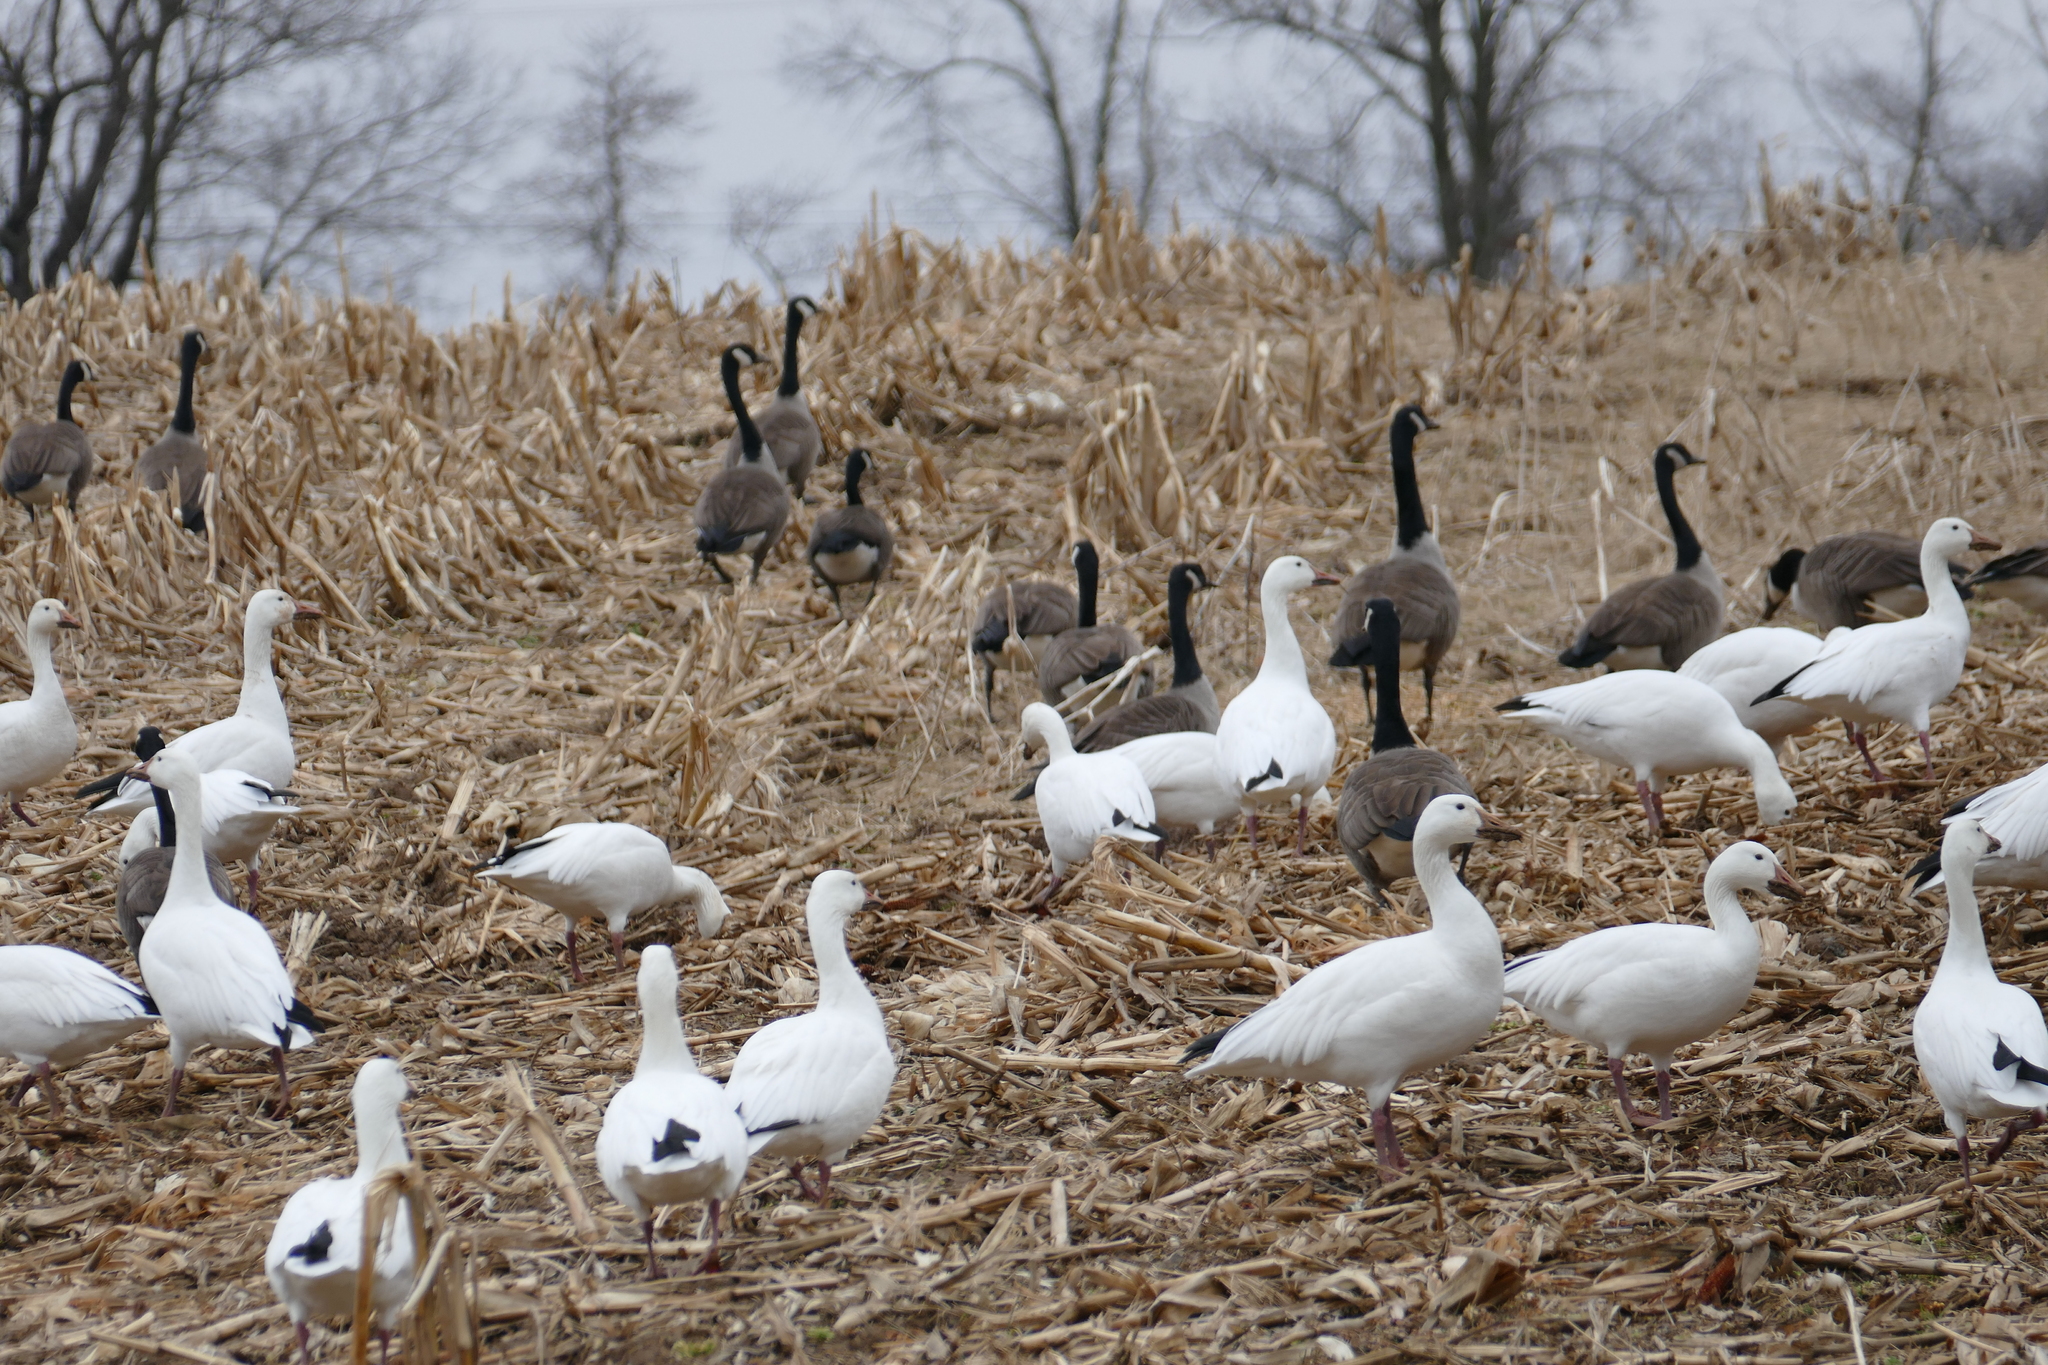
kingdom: Animalia
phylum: Chordata
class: Aves
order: Anseriformes
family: Anatidae
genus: Anser
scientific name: Anser caerulescens
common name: Snow goose
